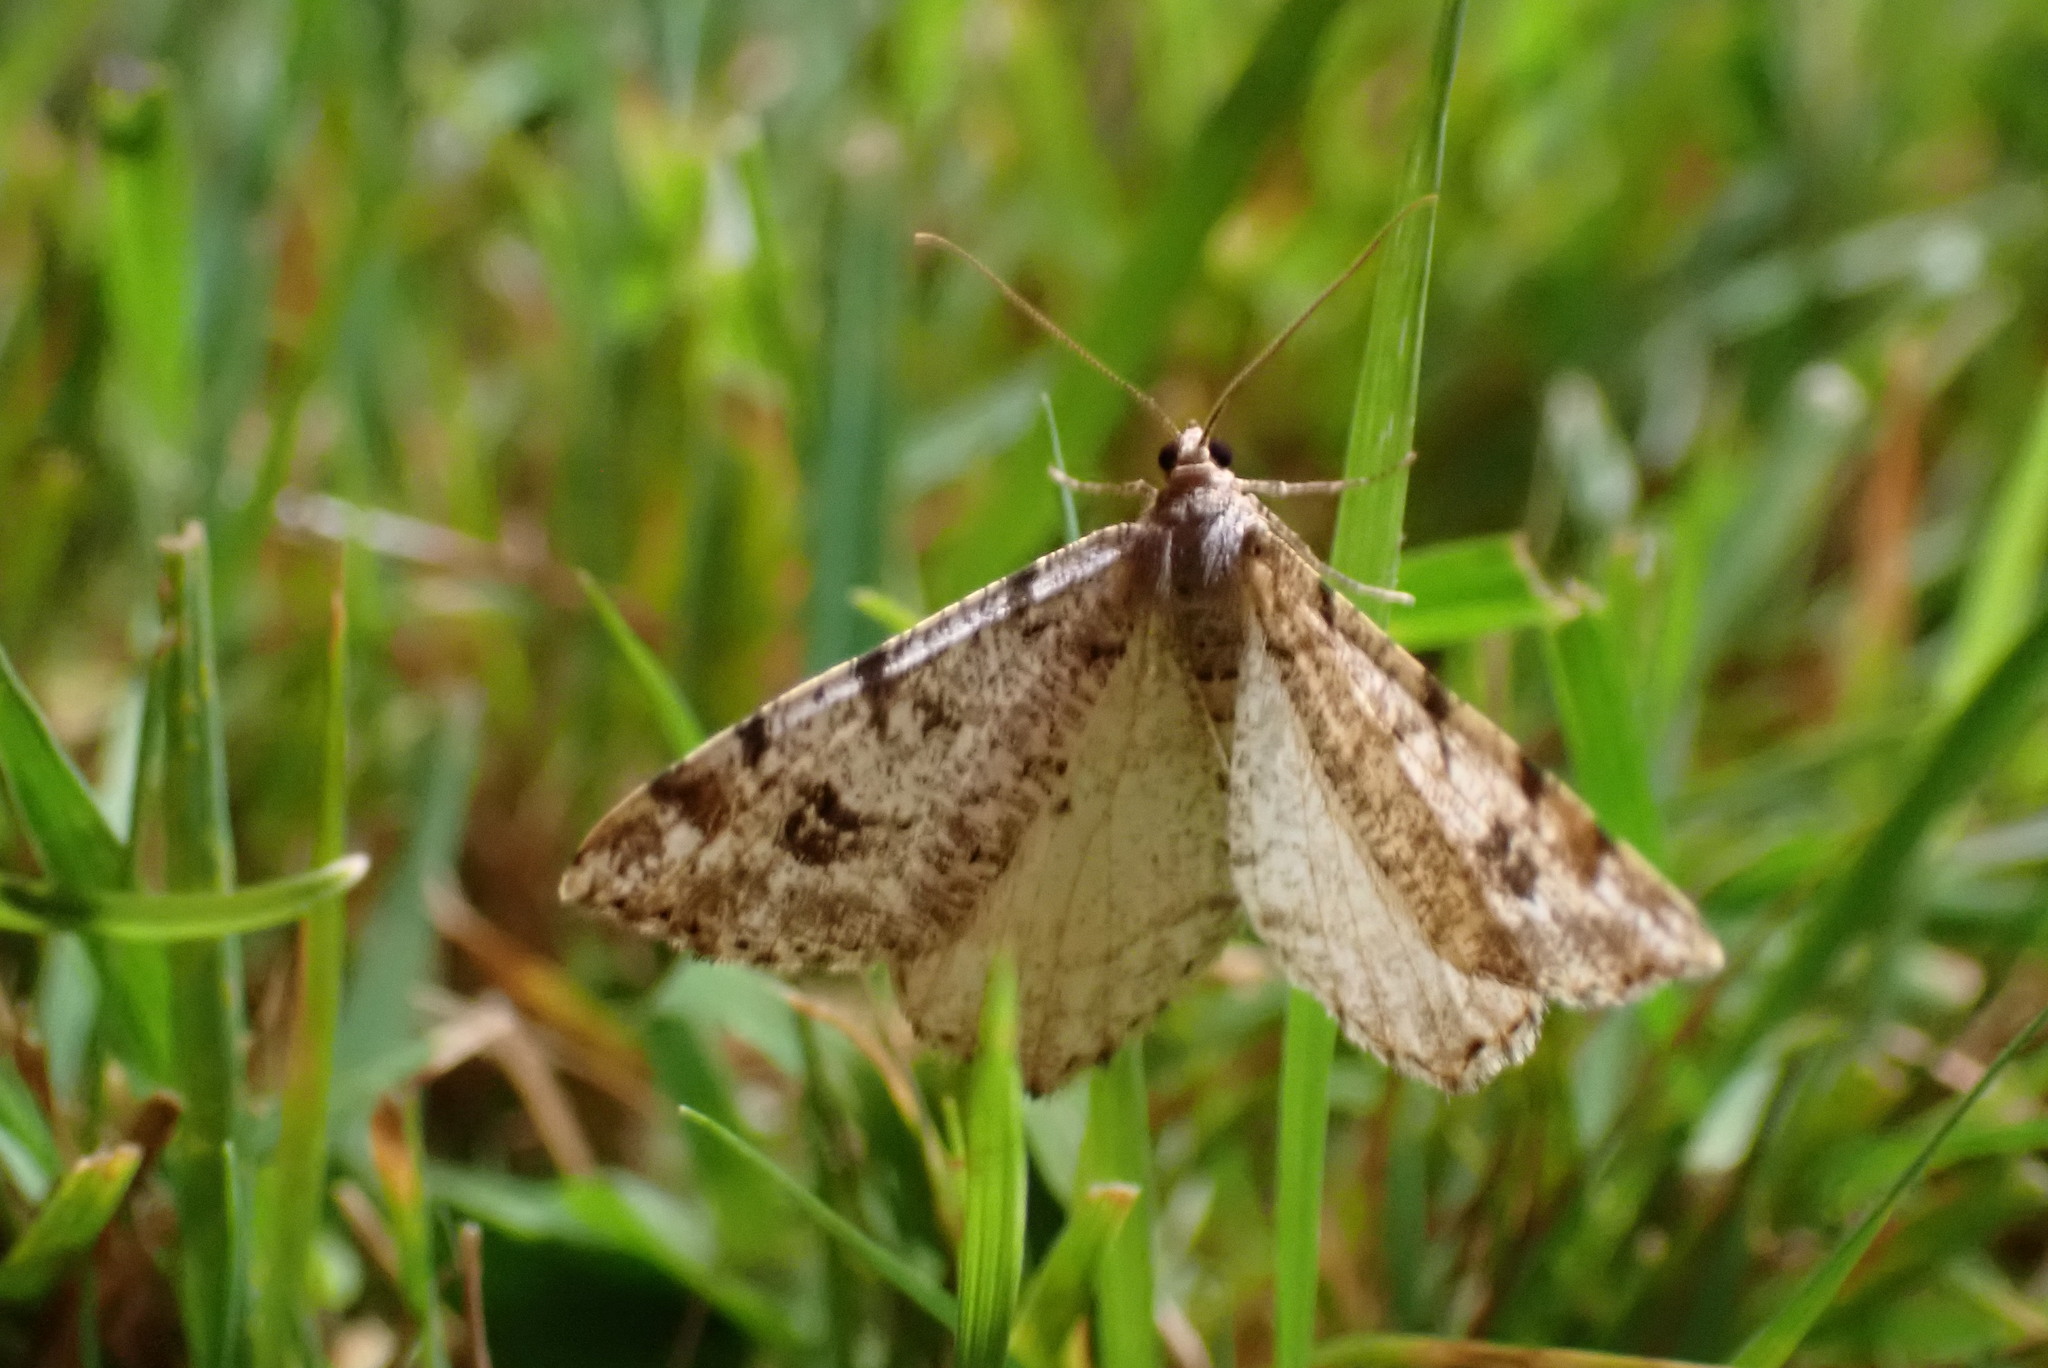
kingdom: Animalia
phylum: Arthropoda
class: Insecta
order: Lepidoptera
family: Geometridae
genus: Macaria
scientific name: Macaria signaria
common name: Dusky peacock
